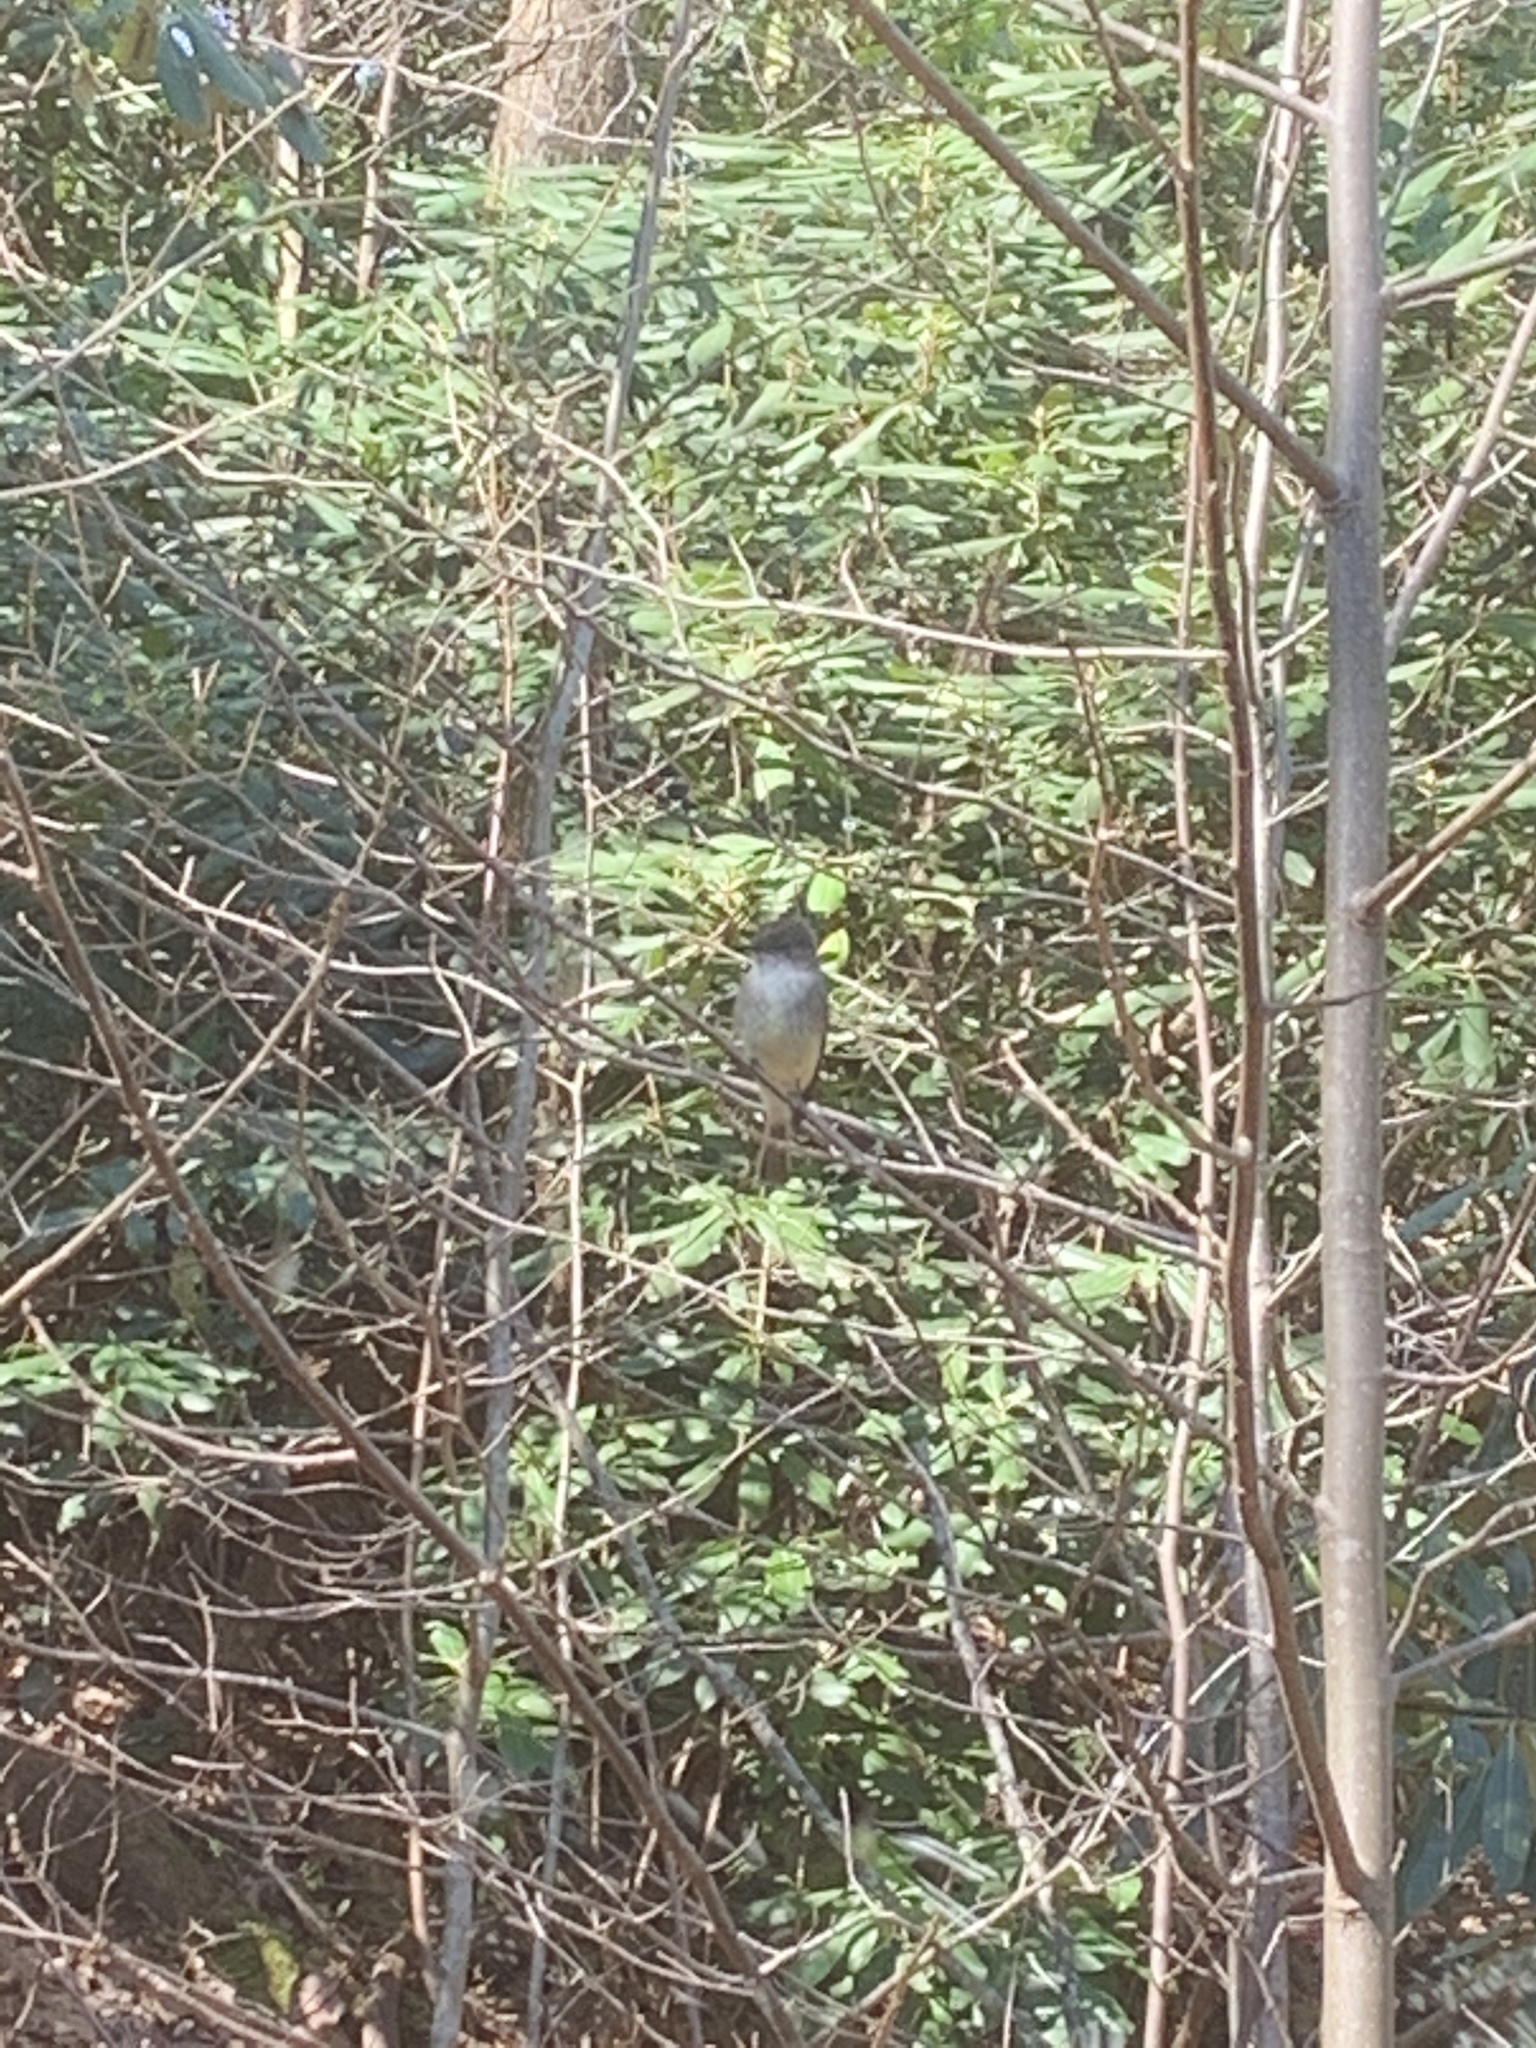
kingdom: Animalia
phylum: Chordata
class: Aves
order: Passeriformes
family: Tyrannidae
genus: Sayornis
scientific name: Sayornis phoebe
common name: Eastern phoebe
